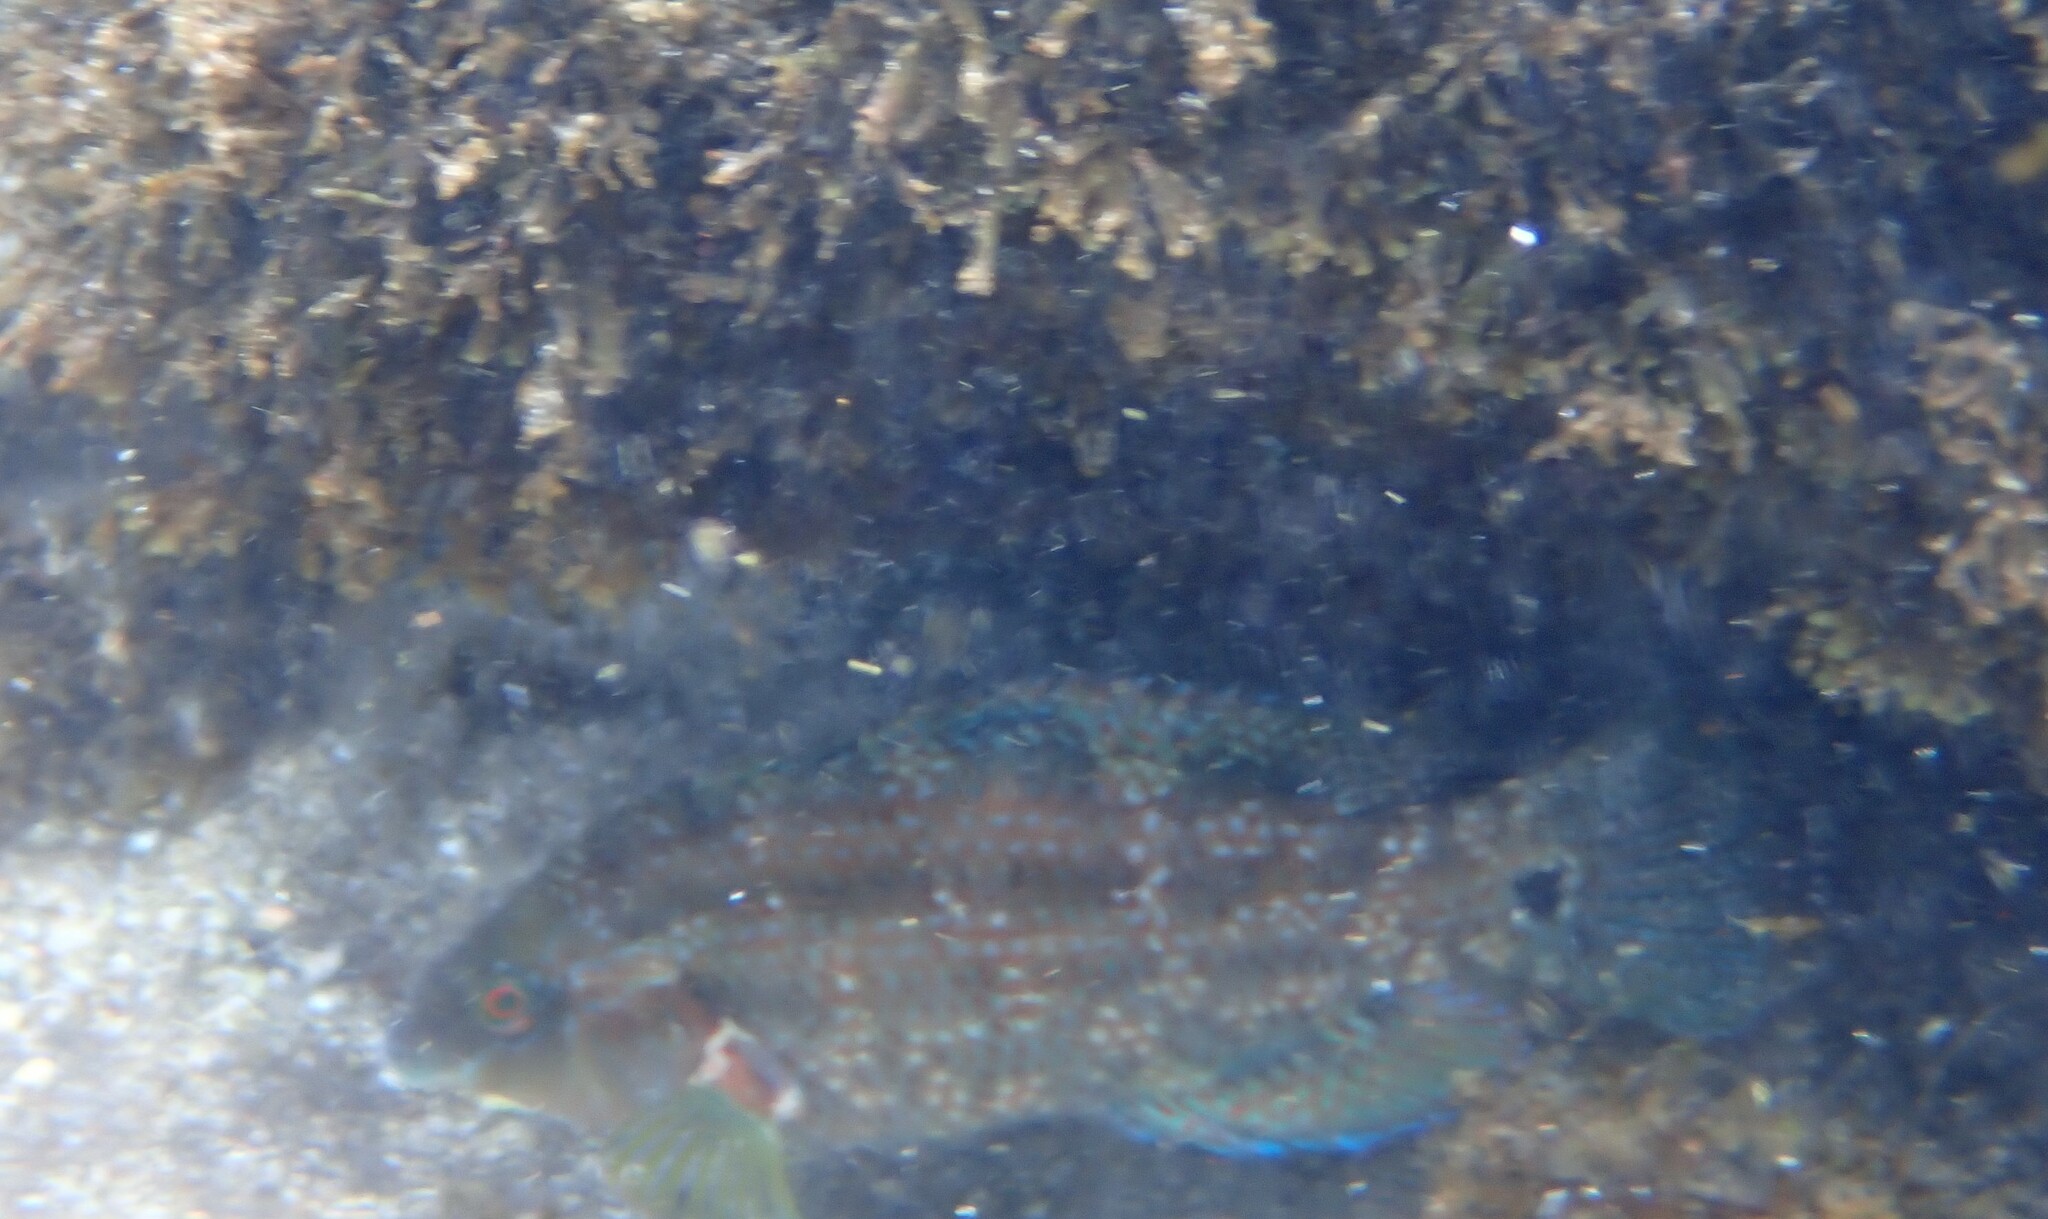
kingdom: Animalia
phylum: Chordata
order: Perciformes
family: Labridae
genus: Symphodus
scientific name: Symphodus caeruleus
